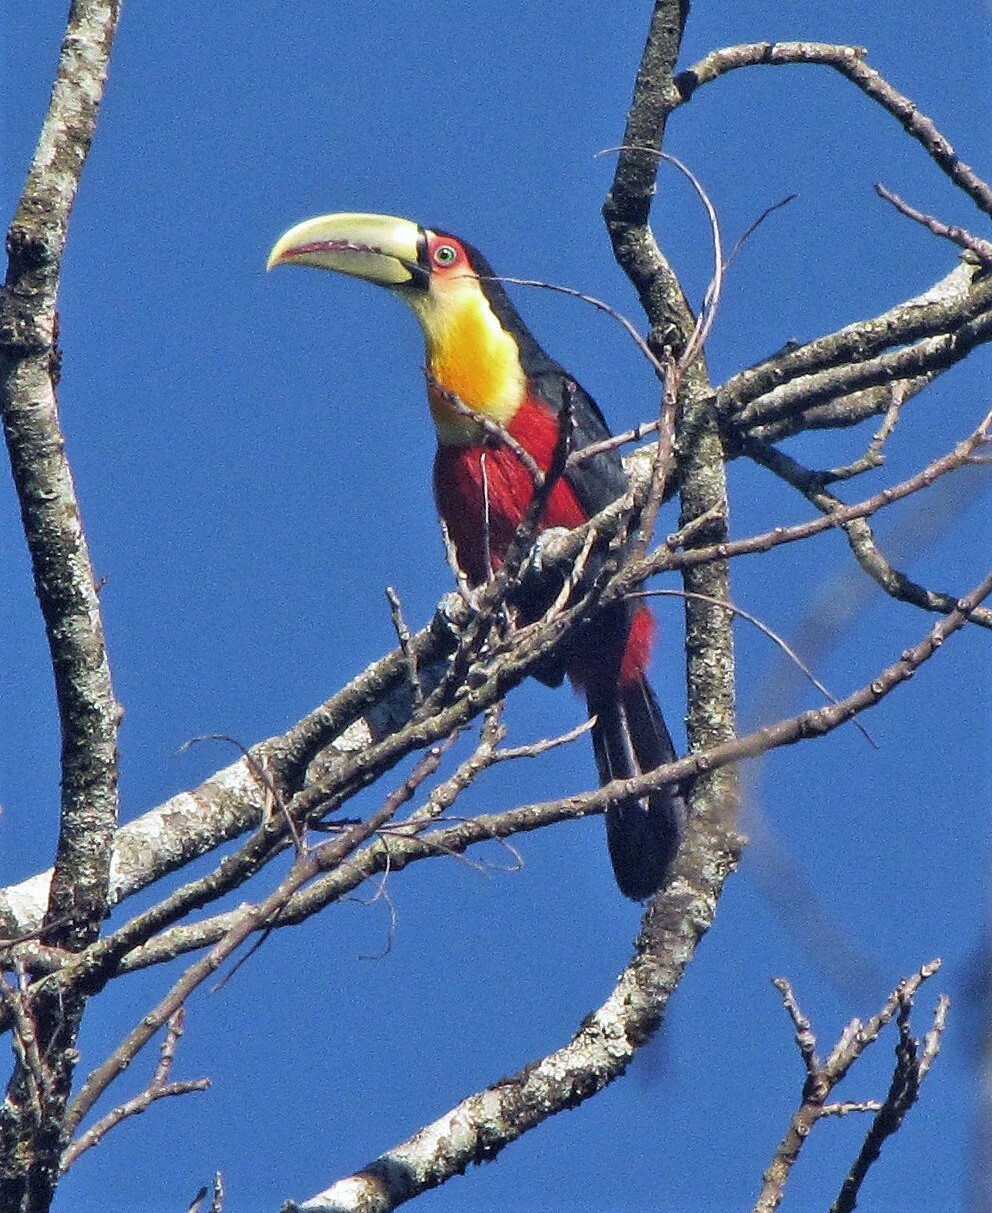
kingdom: Animalia
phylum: Chordata
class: Aves
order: Piciformes
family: Ramphastidae
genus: Ramphastos
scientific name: Ramphastos dicolorus
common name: Green-billed toucan
